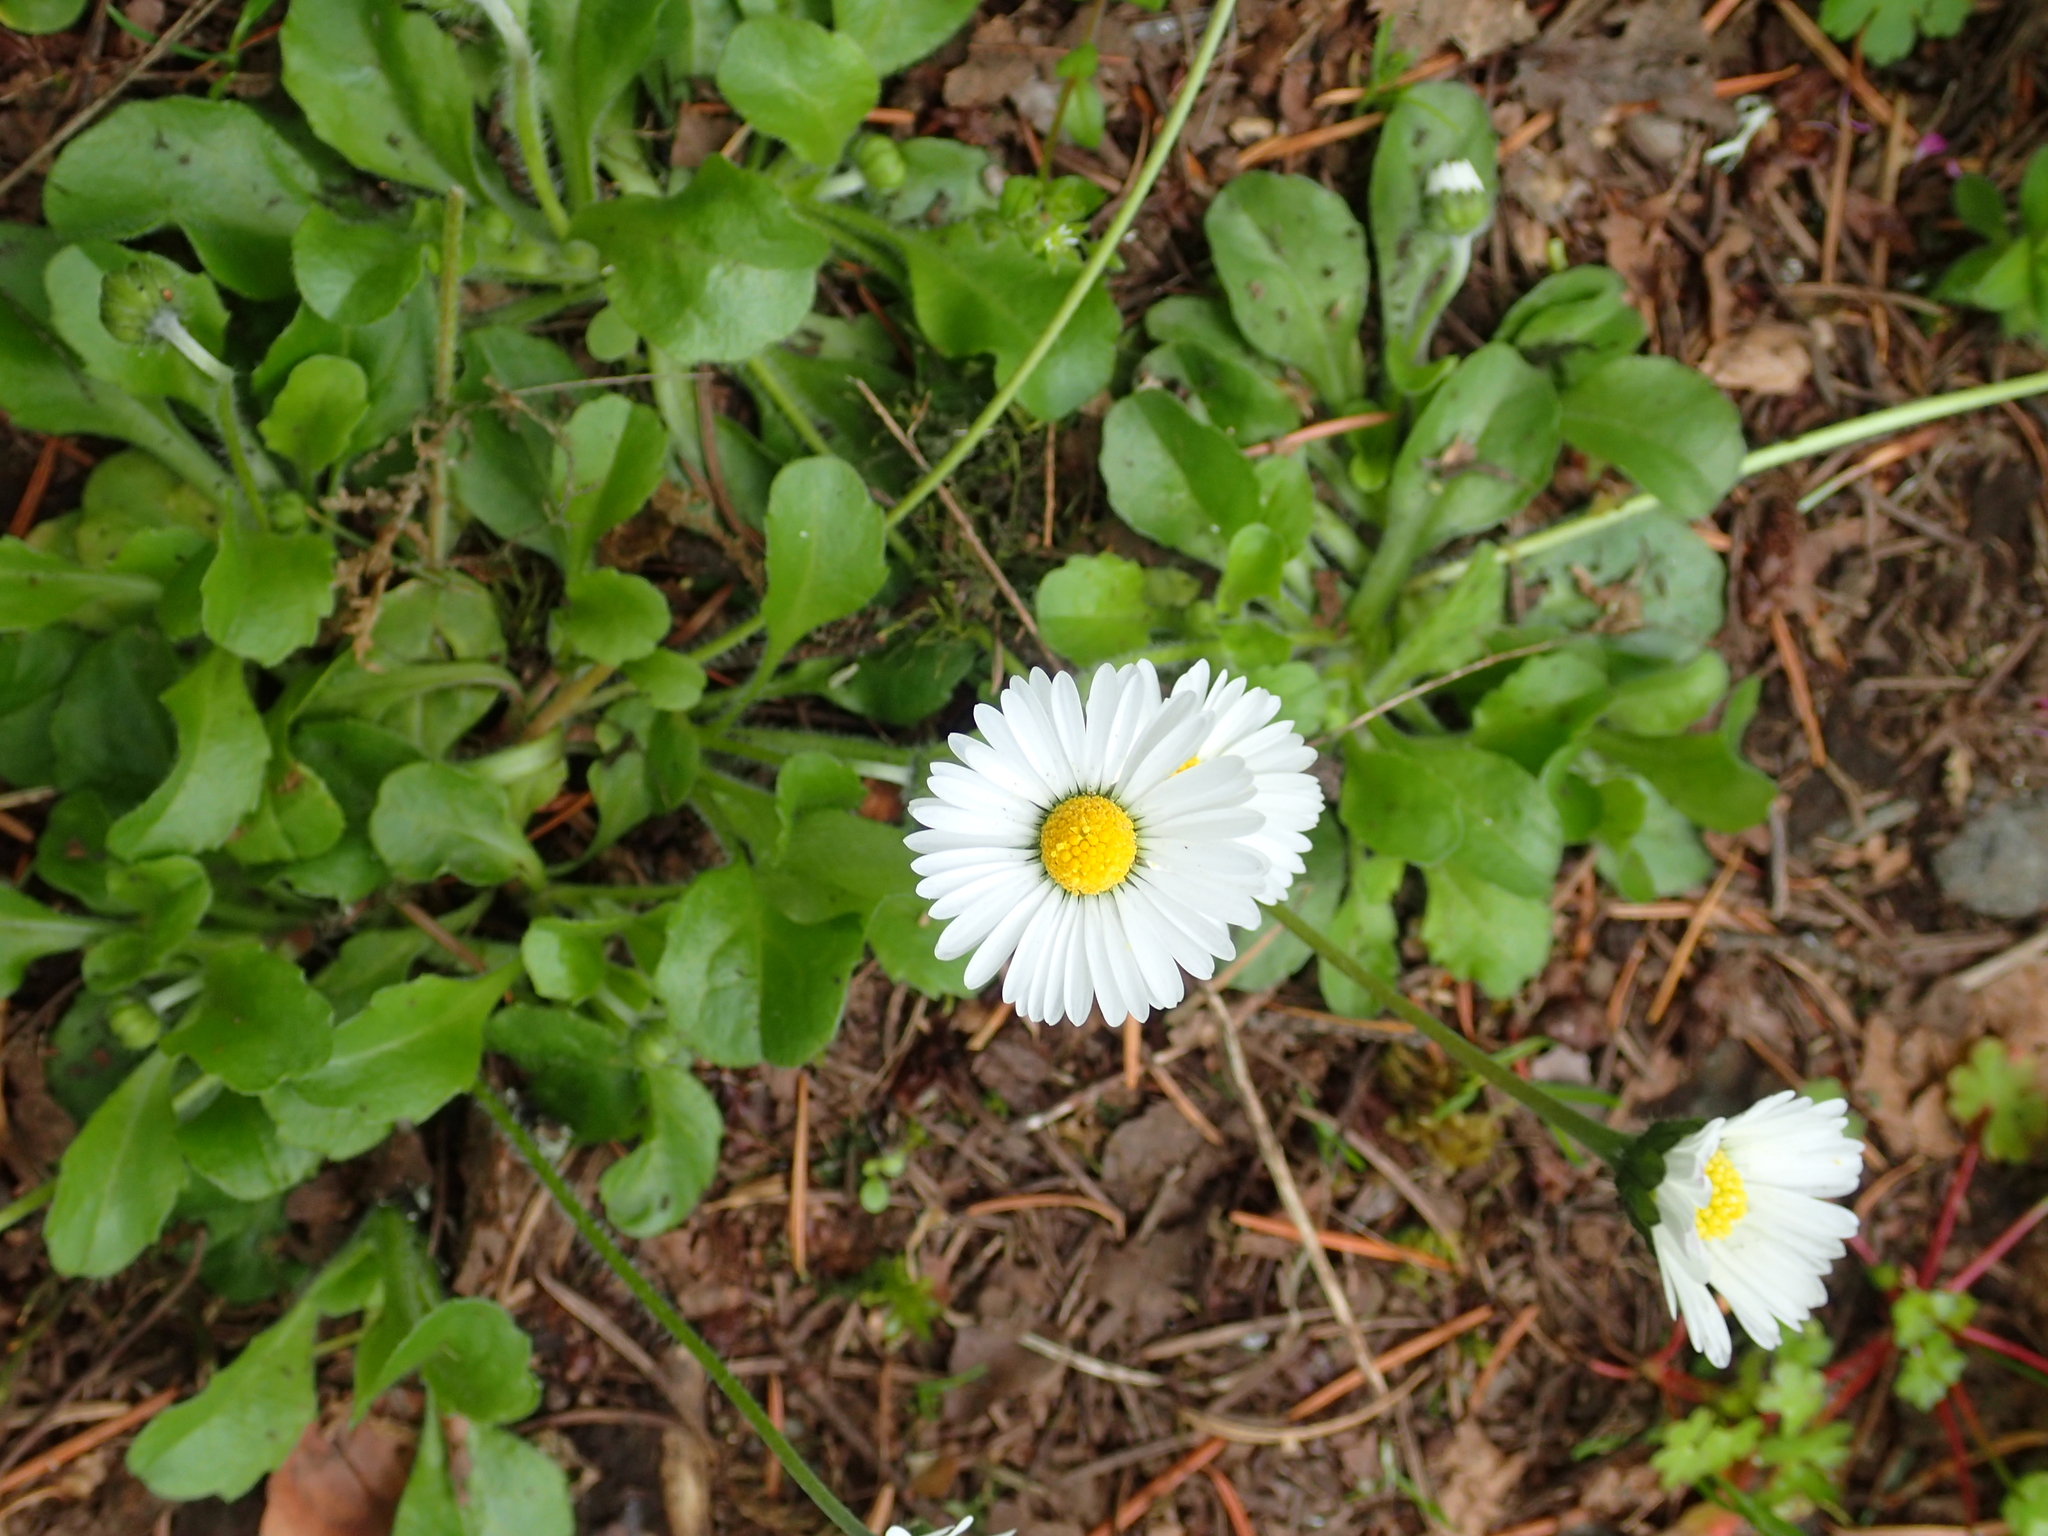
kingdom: Plantae
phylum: Tracheophyta
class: Magnoliopsida
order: Asterales
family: Asteraceae
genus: Bellis
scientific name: Bellis perennis
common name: Lawndaisy
